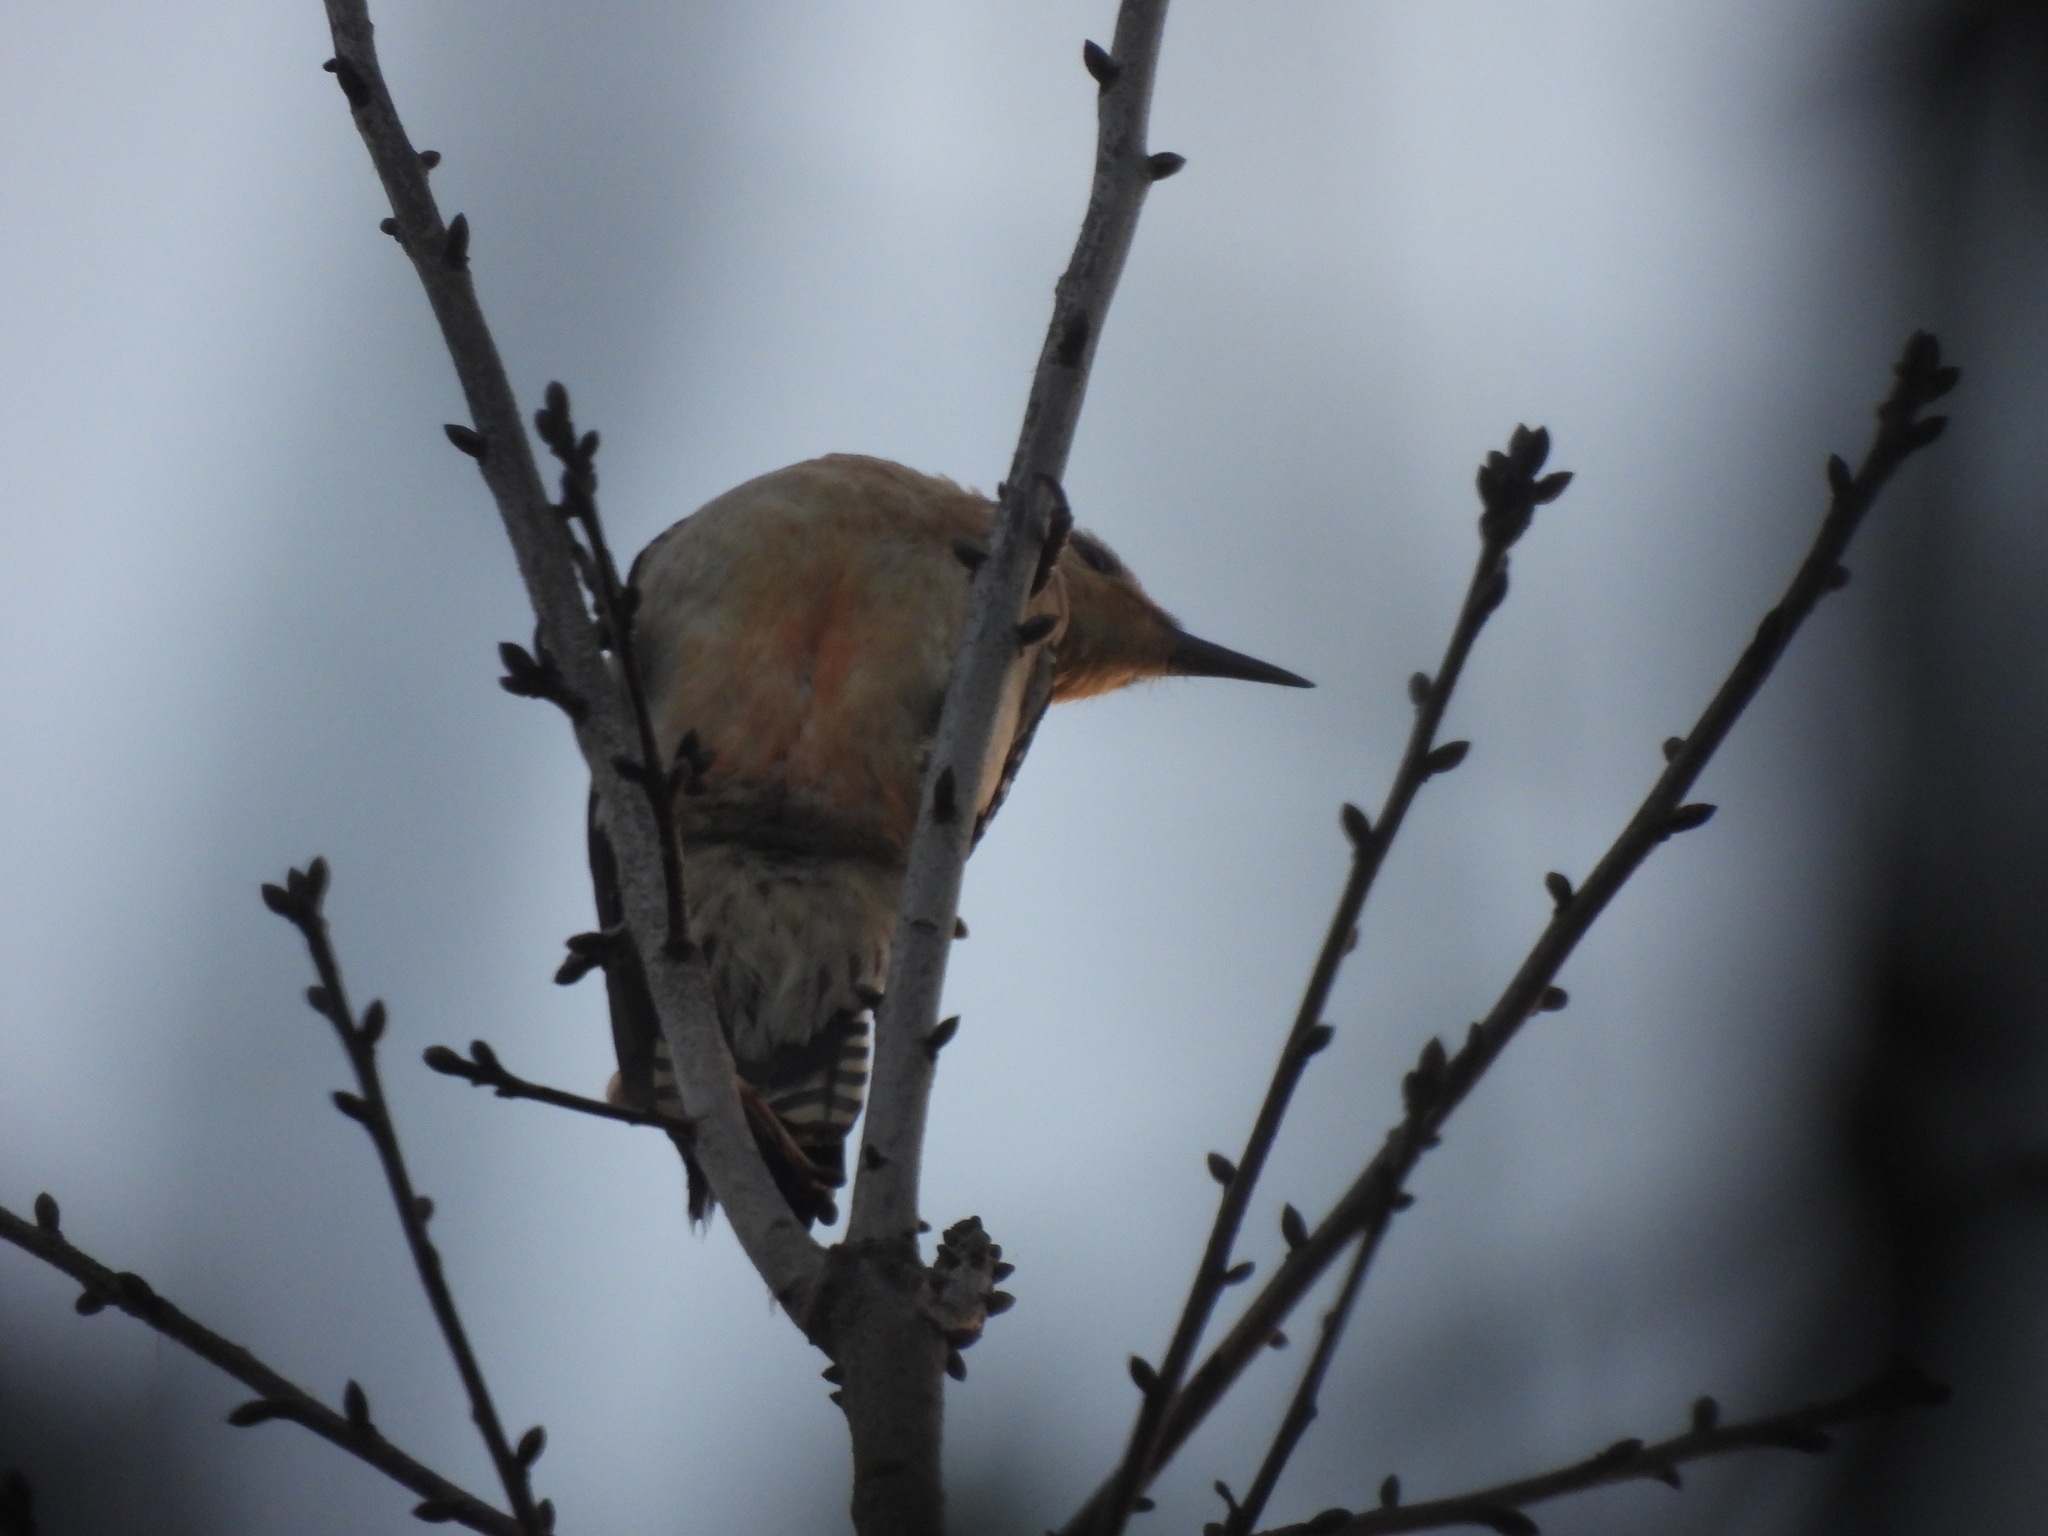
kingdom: Animalia
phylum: Chordata
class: Aves
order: Piciformes
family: Picidae
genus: Melanerpes
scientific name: Melanerpes carolinus
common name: Red-bellied woodpecker
